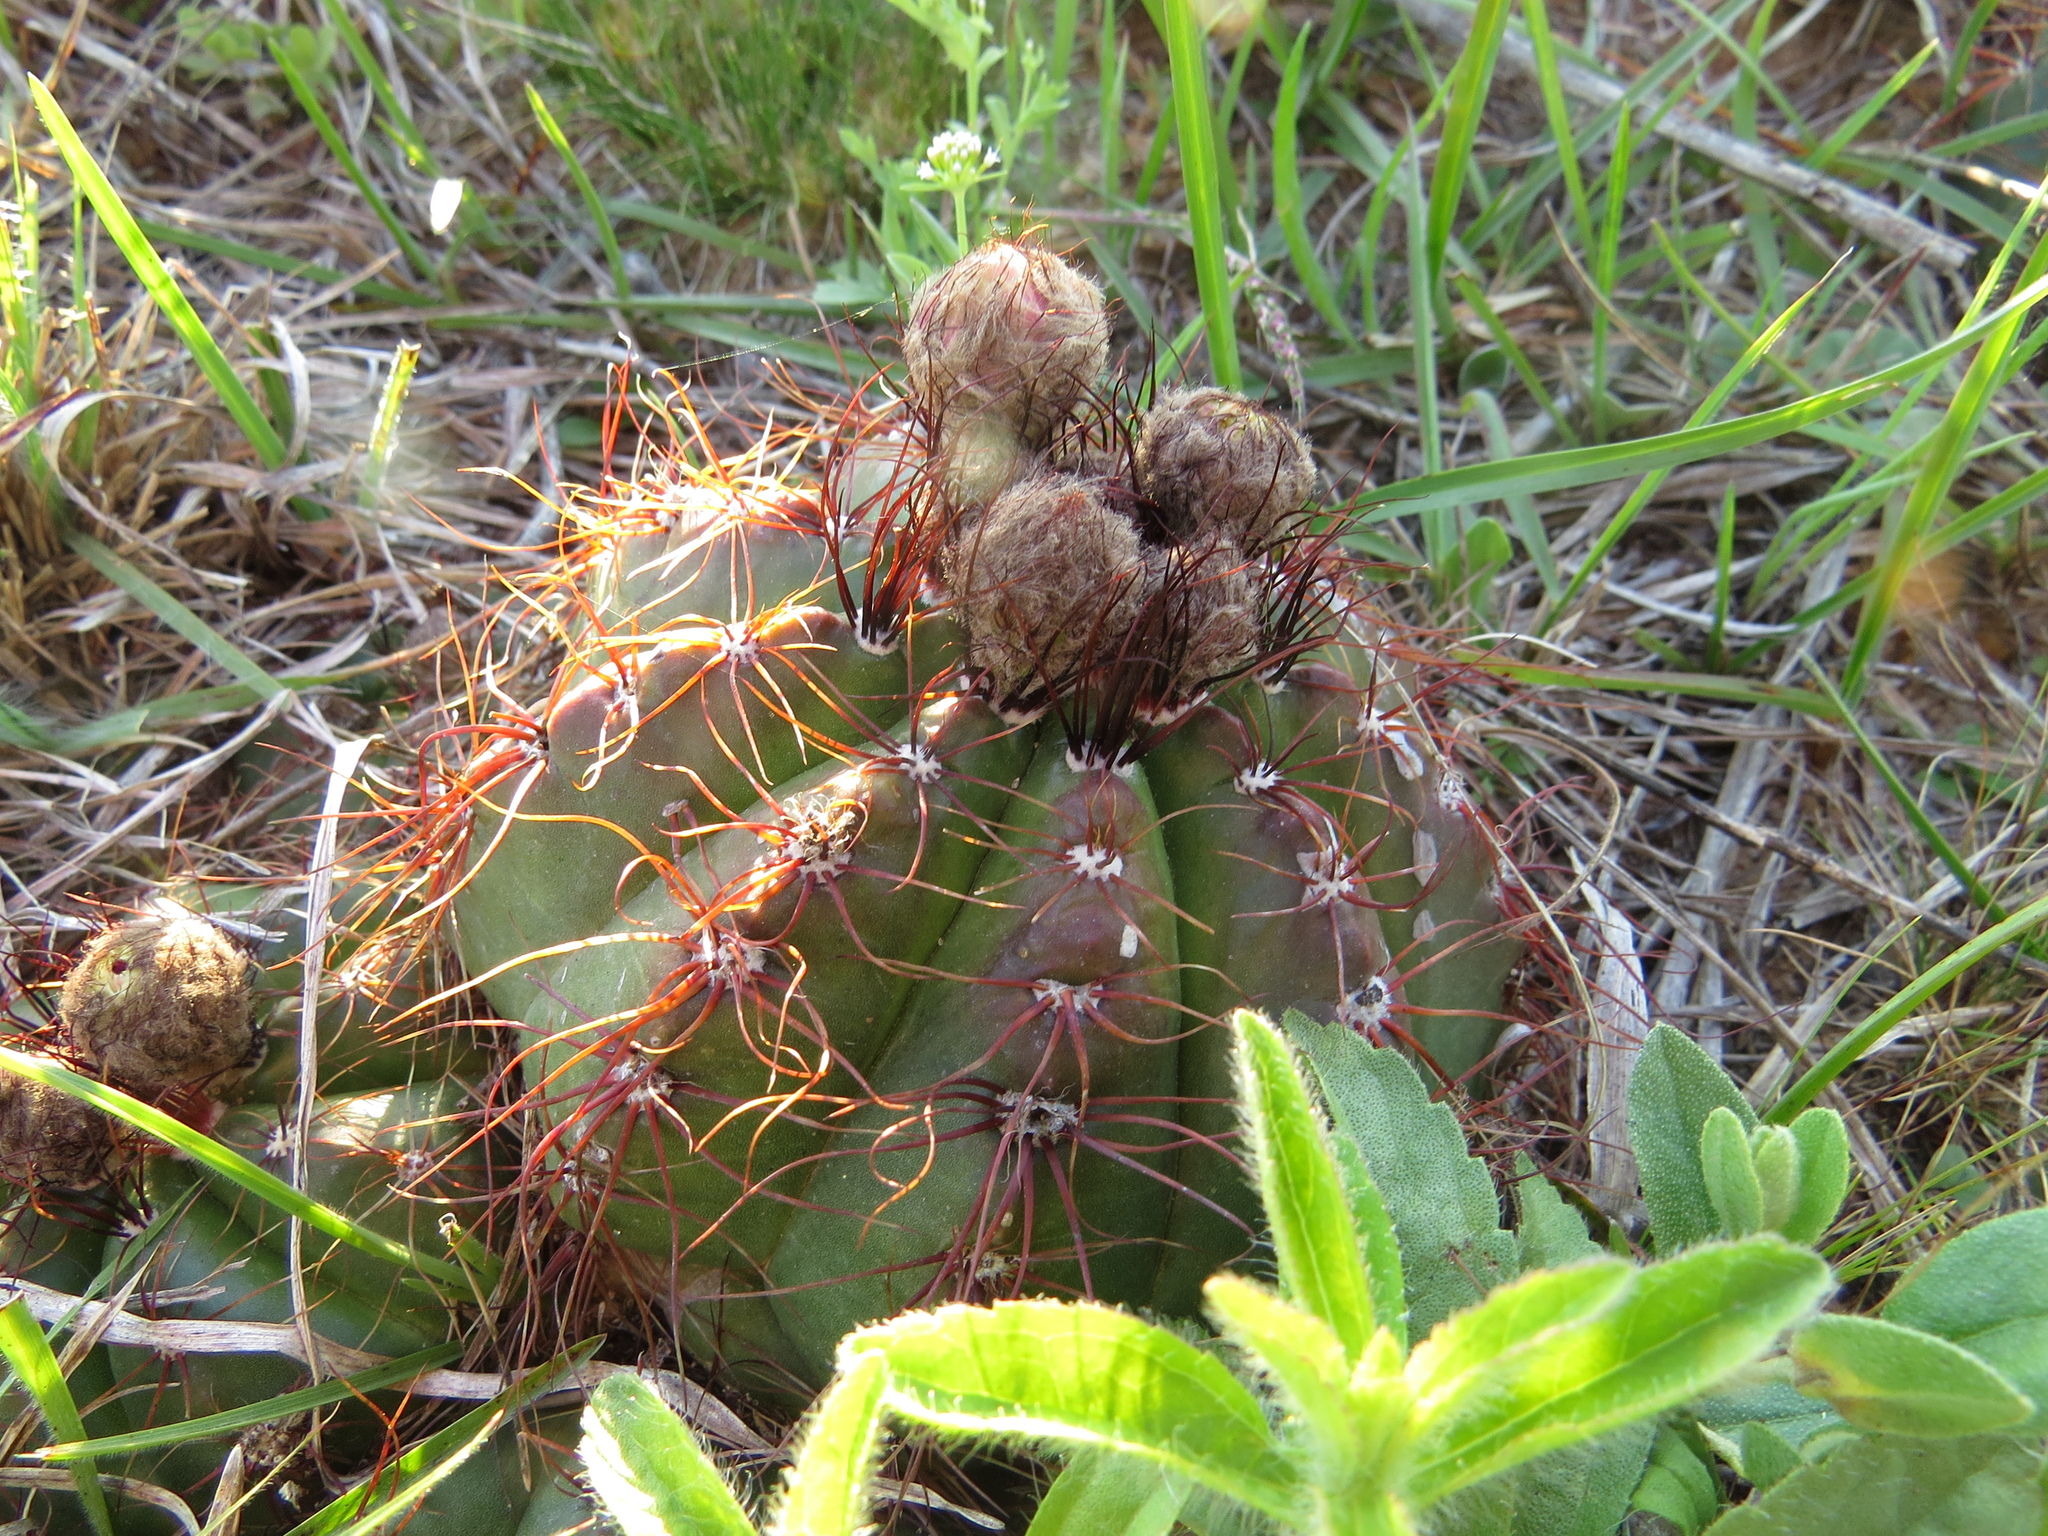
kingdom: Plantae
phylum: Tracheophyta
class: Magnoliopsida
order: Caryophyllales
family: Cactaceae
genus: Parodia
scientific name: Parodia ottonis
